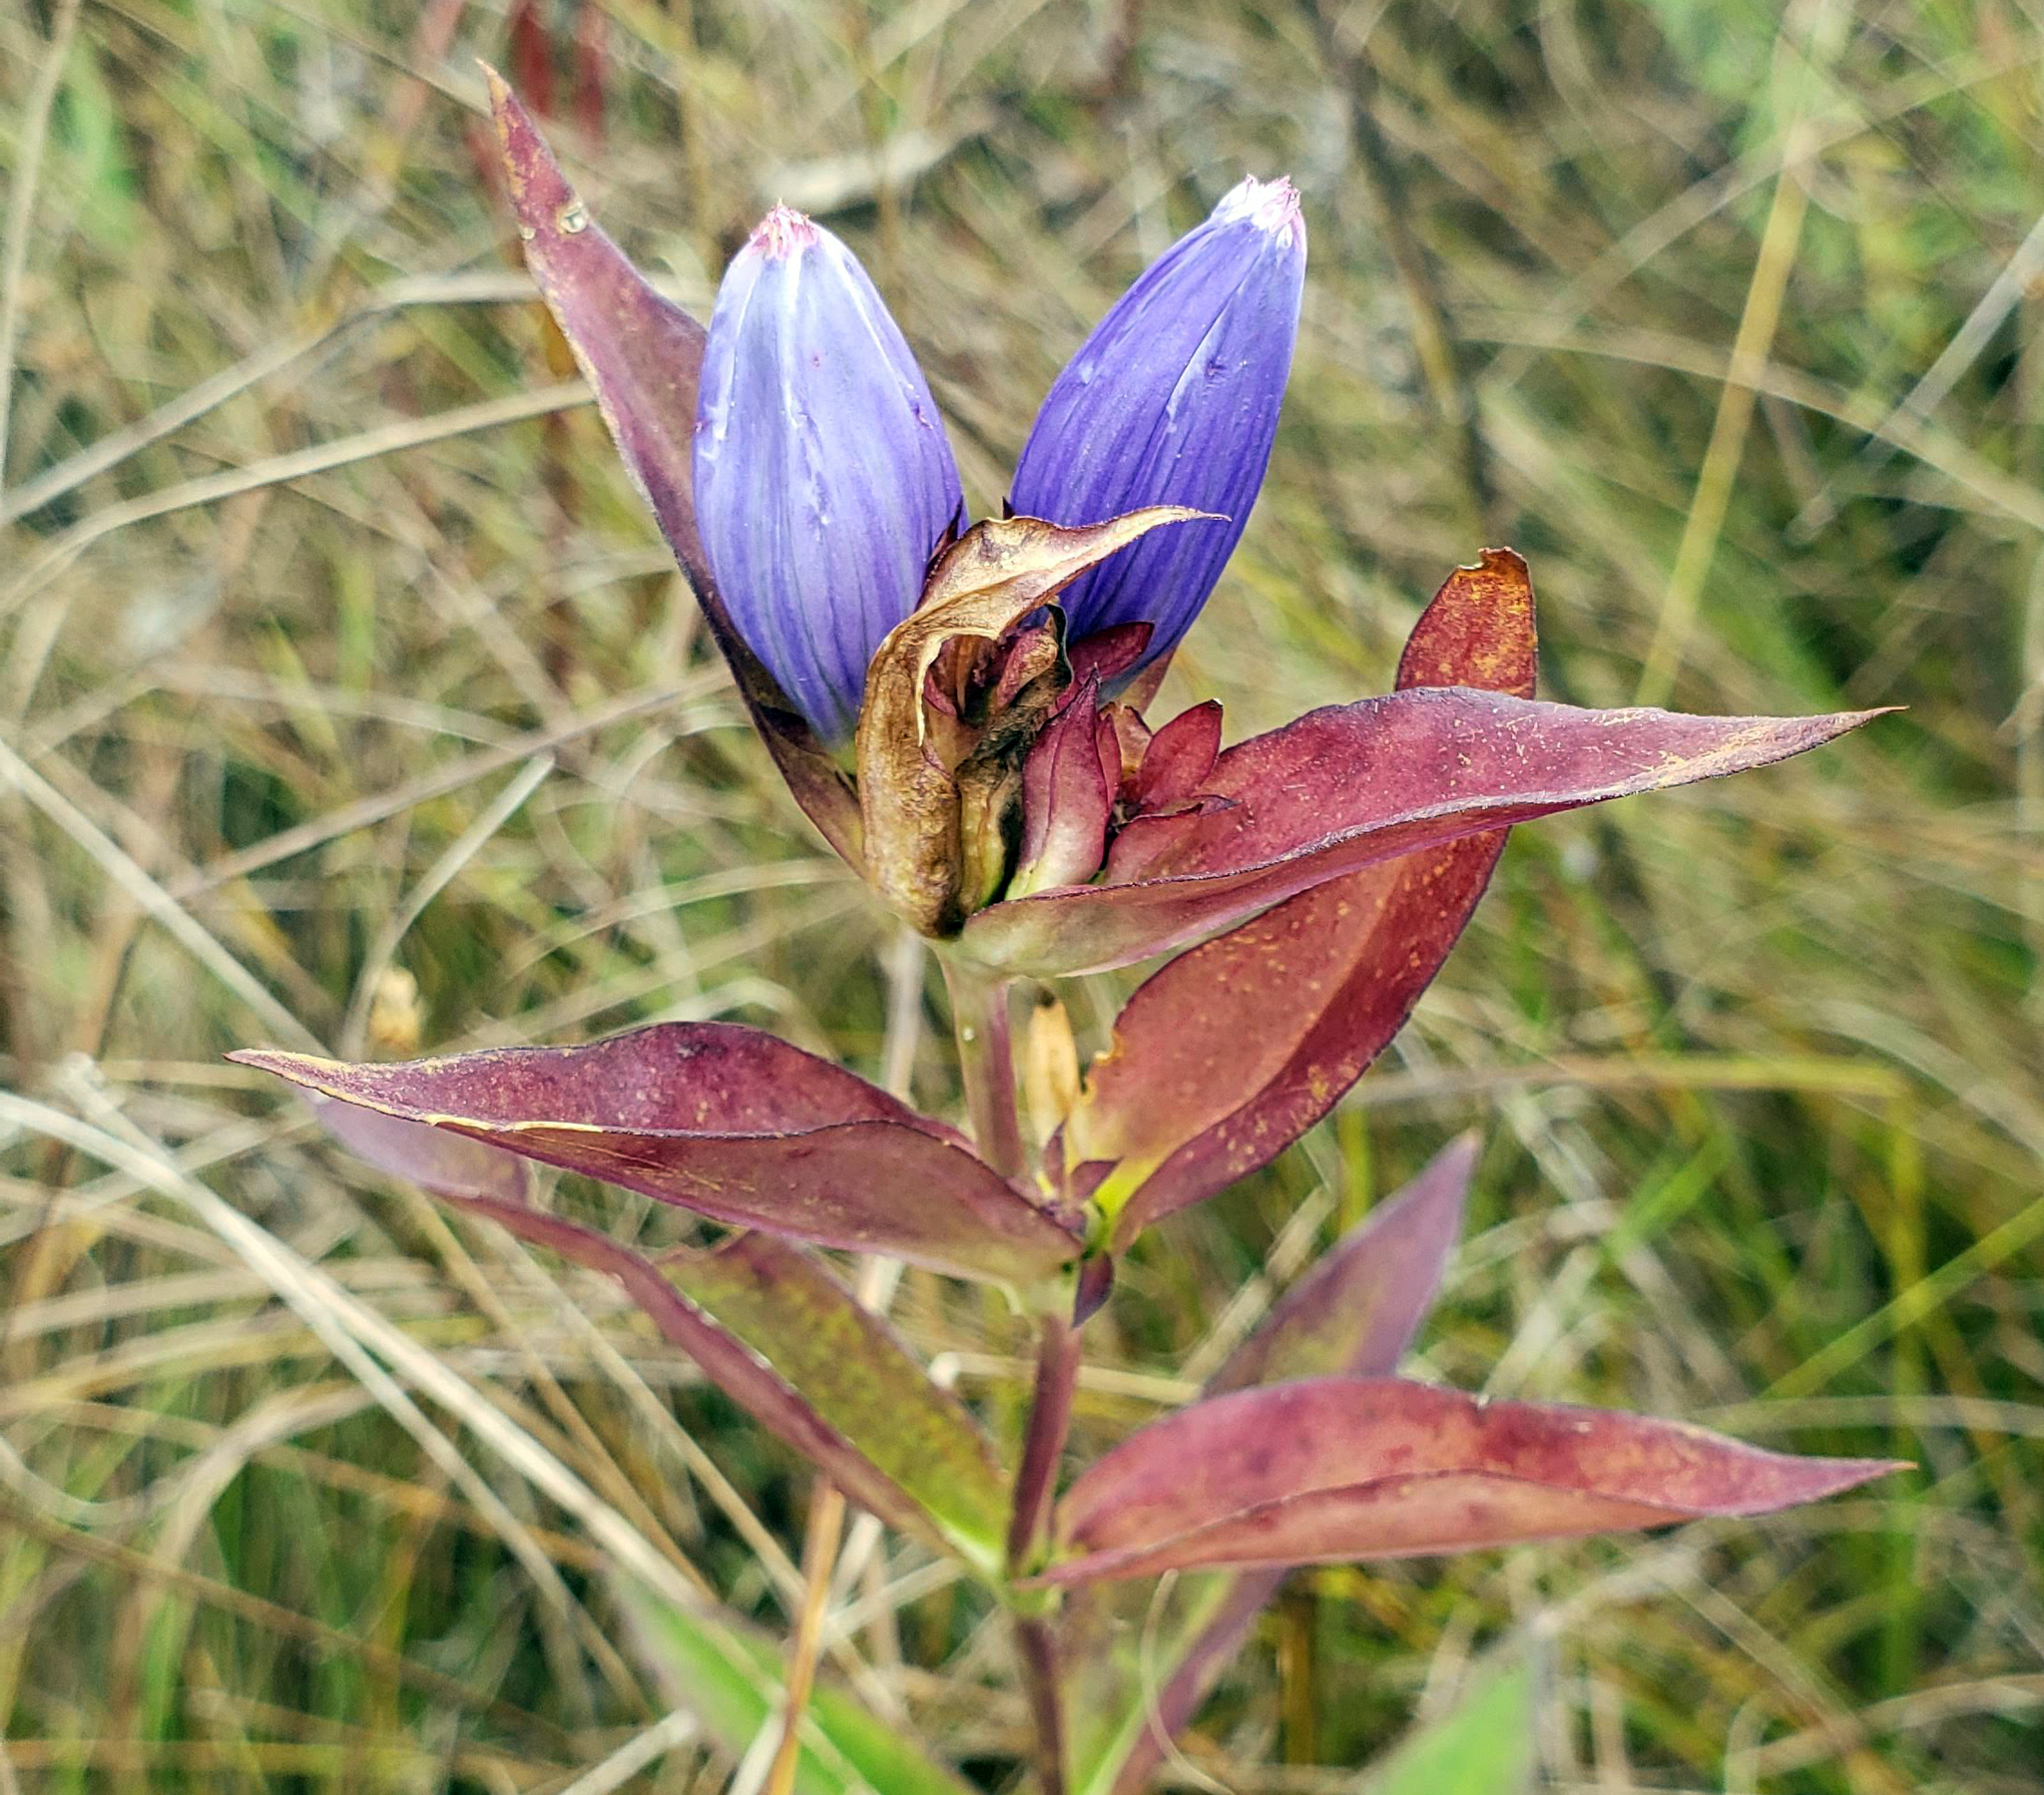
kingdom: Plantae
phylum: Tracheophyta
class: Magnoliopsida
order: Gentianales
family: Gentianaceae
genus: Gentiana
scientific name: Gentiana andrewsii
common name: Bottle gentian
